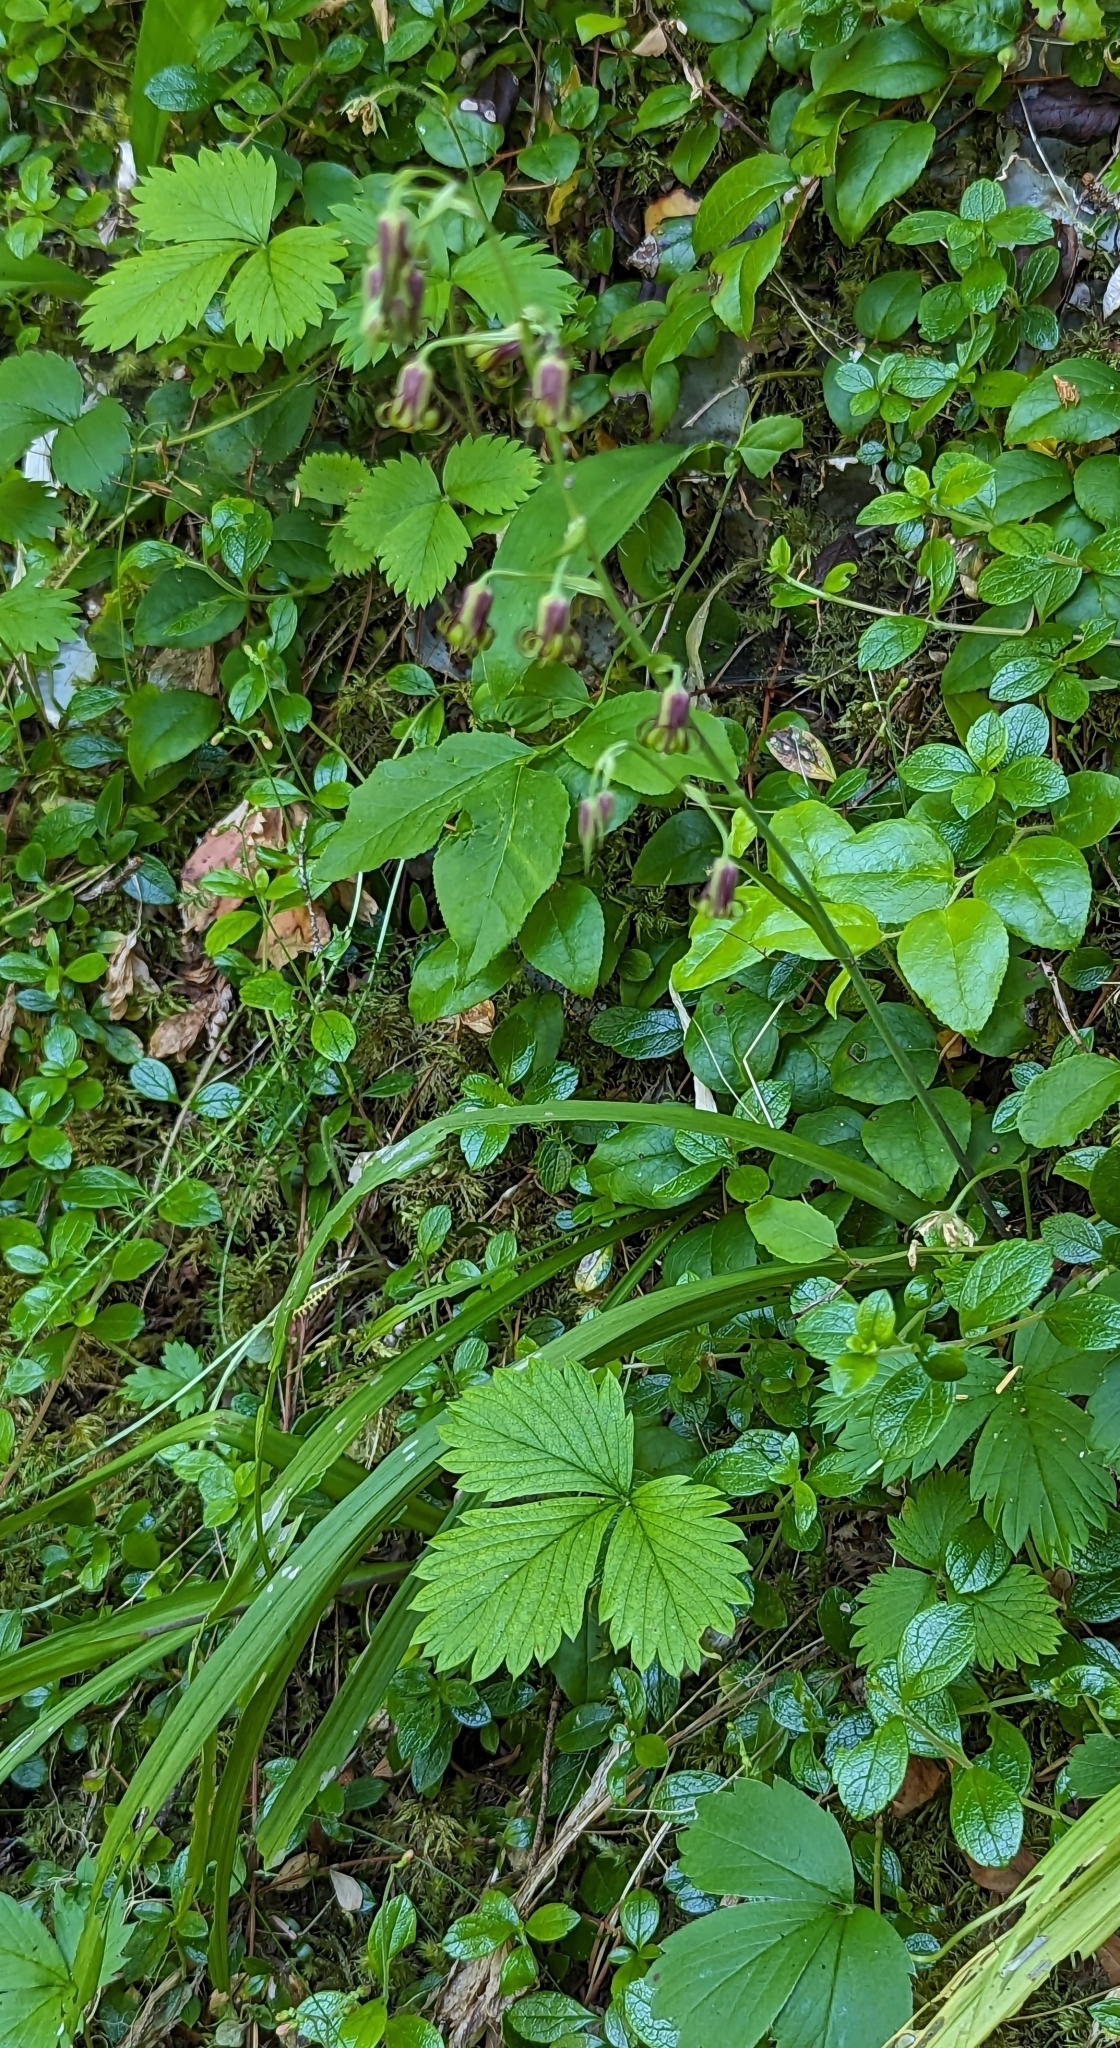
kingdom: Plantae
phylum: Tracheophyta
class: Liliopsida
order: Liliales
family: Melanthiaceae
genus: Anticlea
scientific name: Anticlea occidentalis
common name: Bronze-bells
